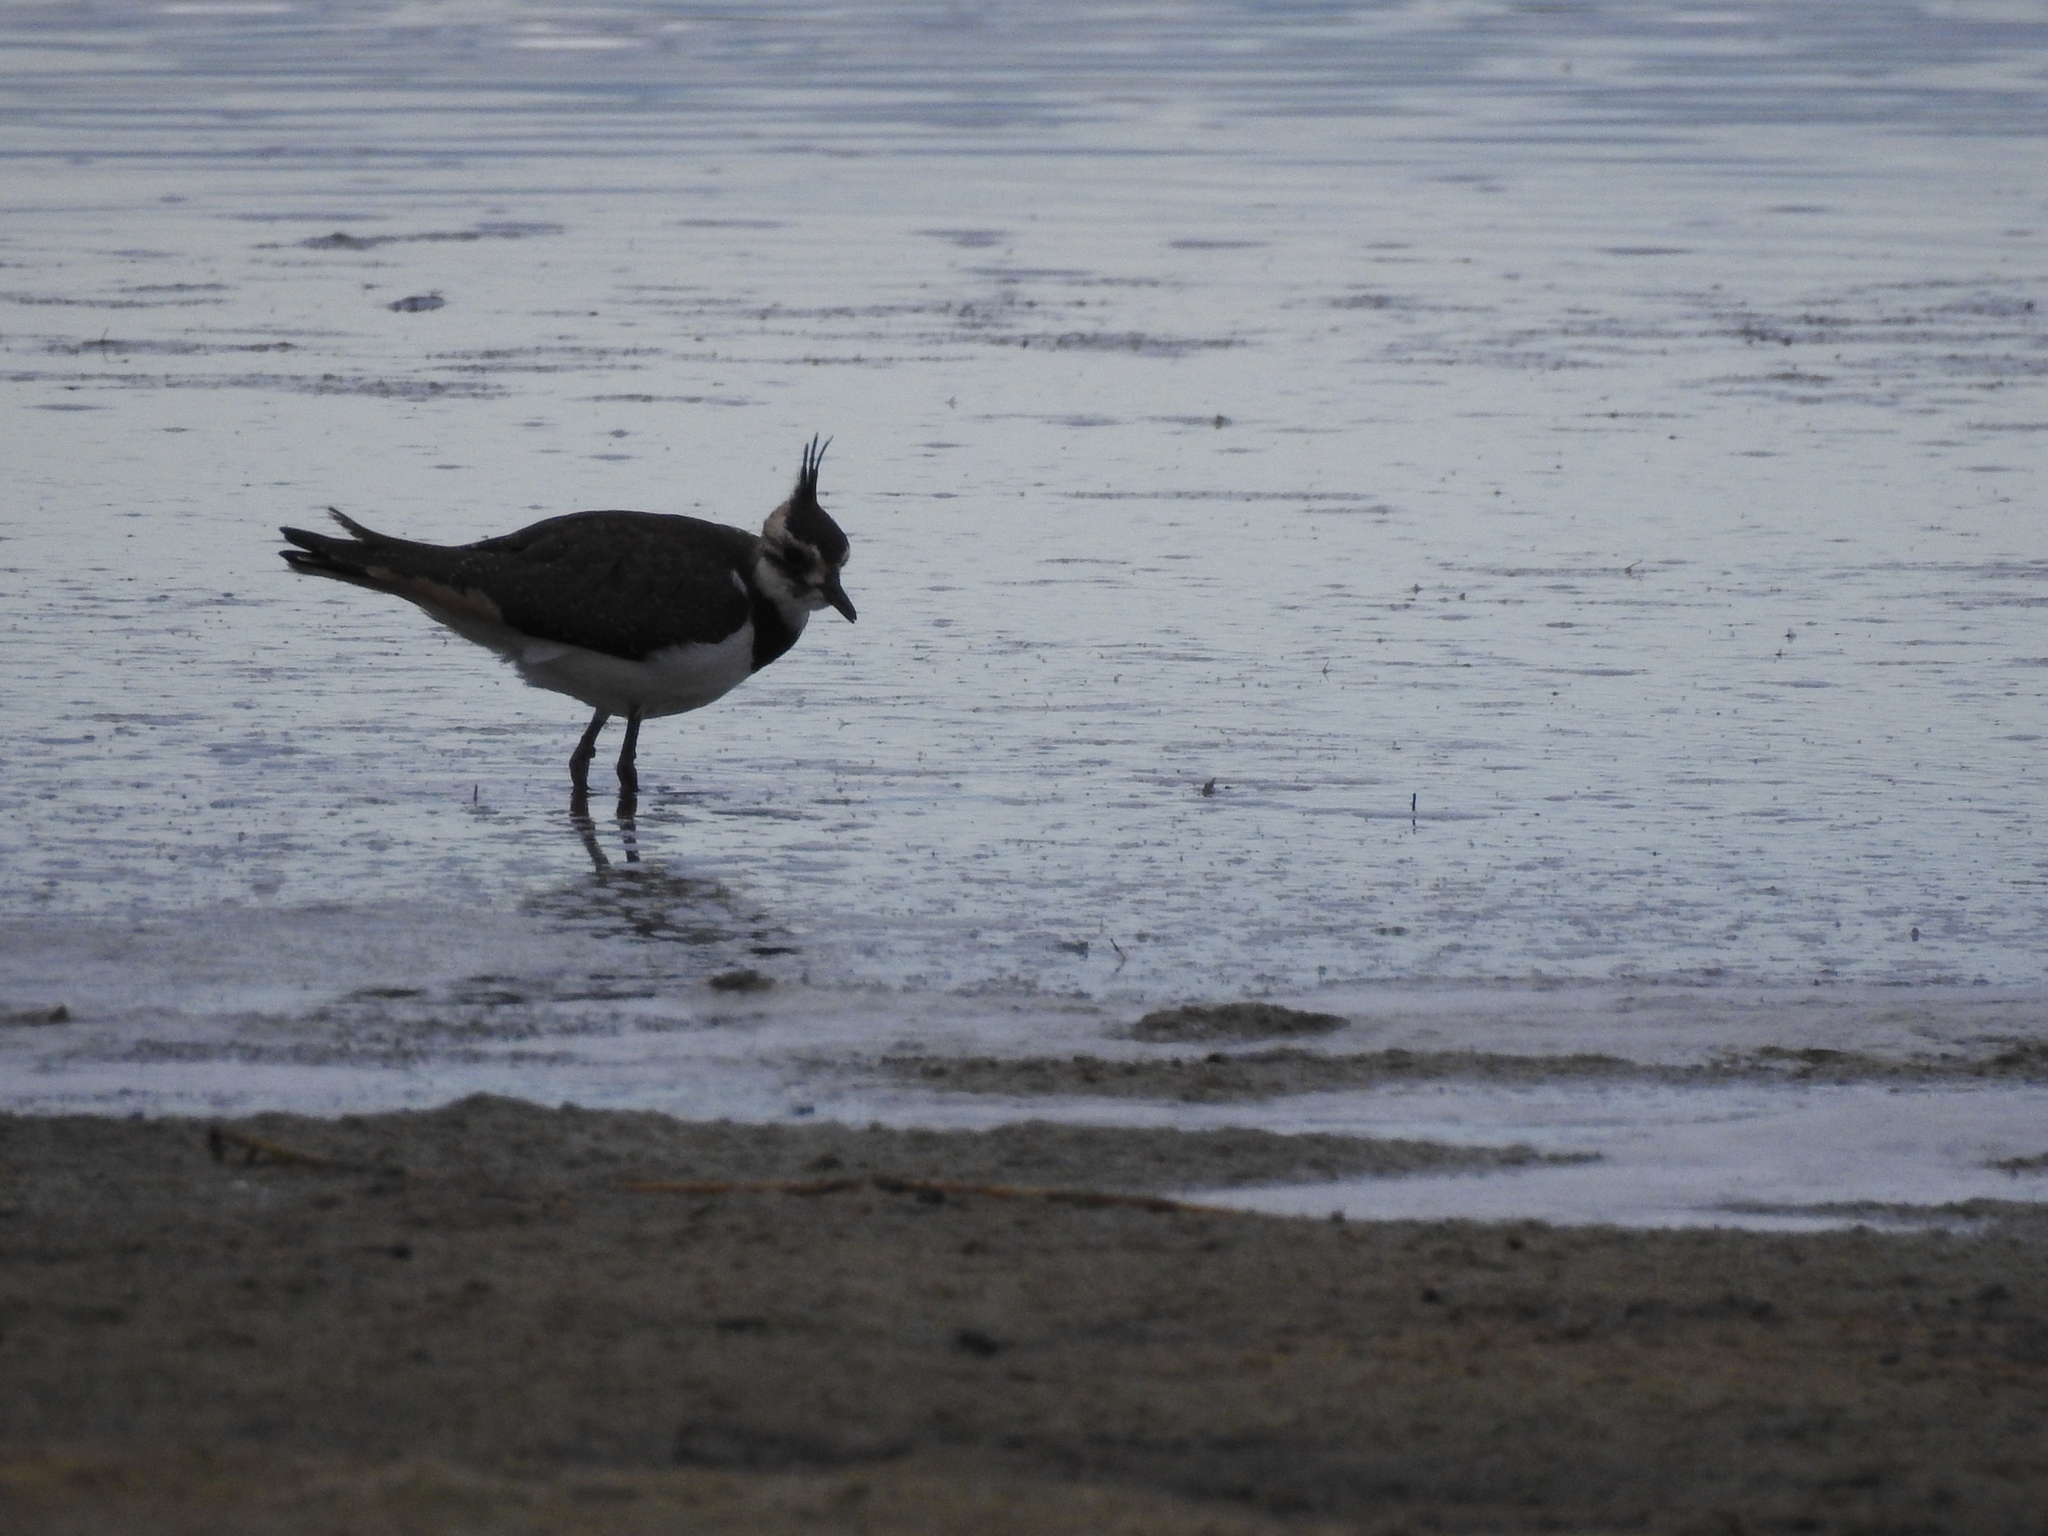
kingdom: Animalia
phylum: Chordata
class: Aves
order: Charadriiformes
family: Charadriidae
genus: Vanellus
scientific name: Vanellus vanellus
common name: Northern lapwing
